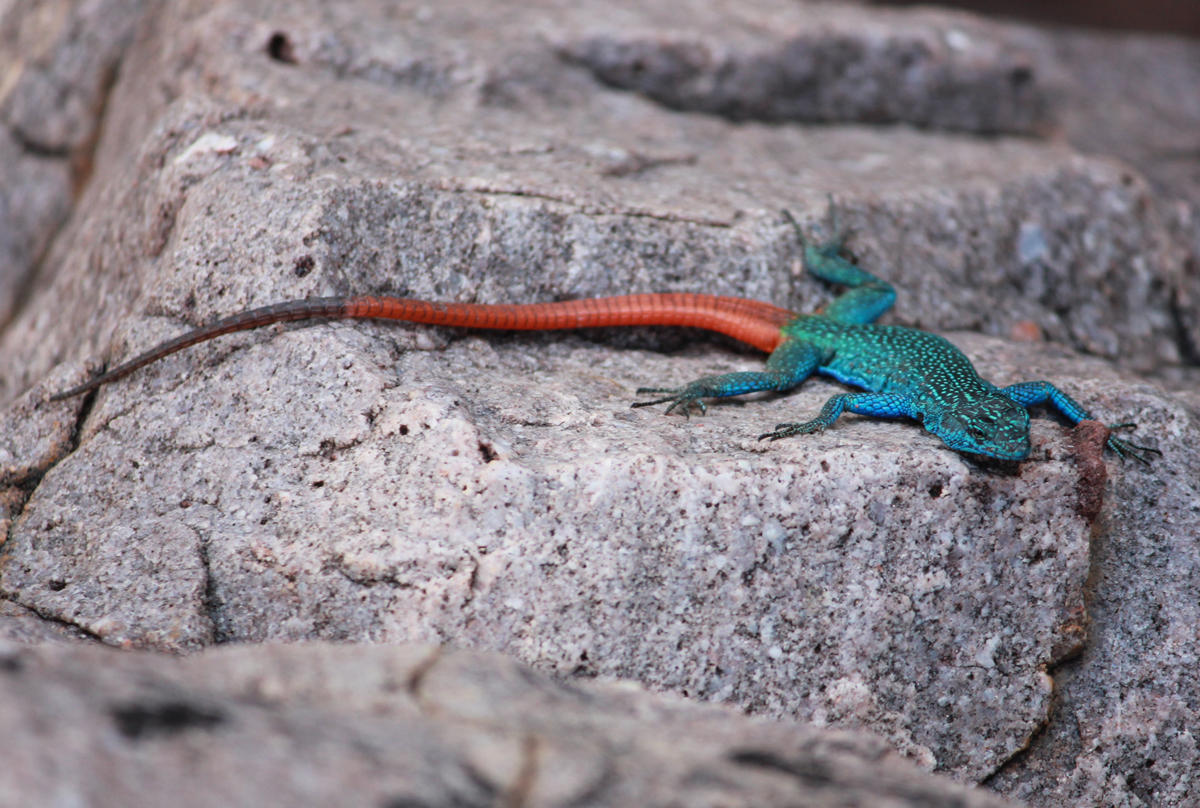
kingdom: Animalia
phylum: Chordata
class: Squamata
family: Cordylidae
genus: Platysaurus
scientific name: Platysaurus relictus
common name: Soutpansberg flat lizard
